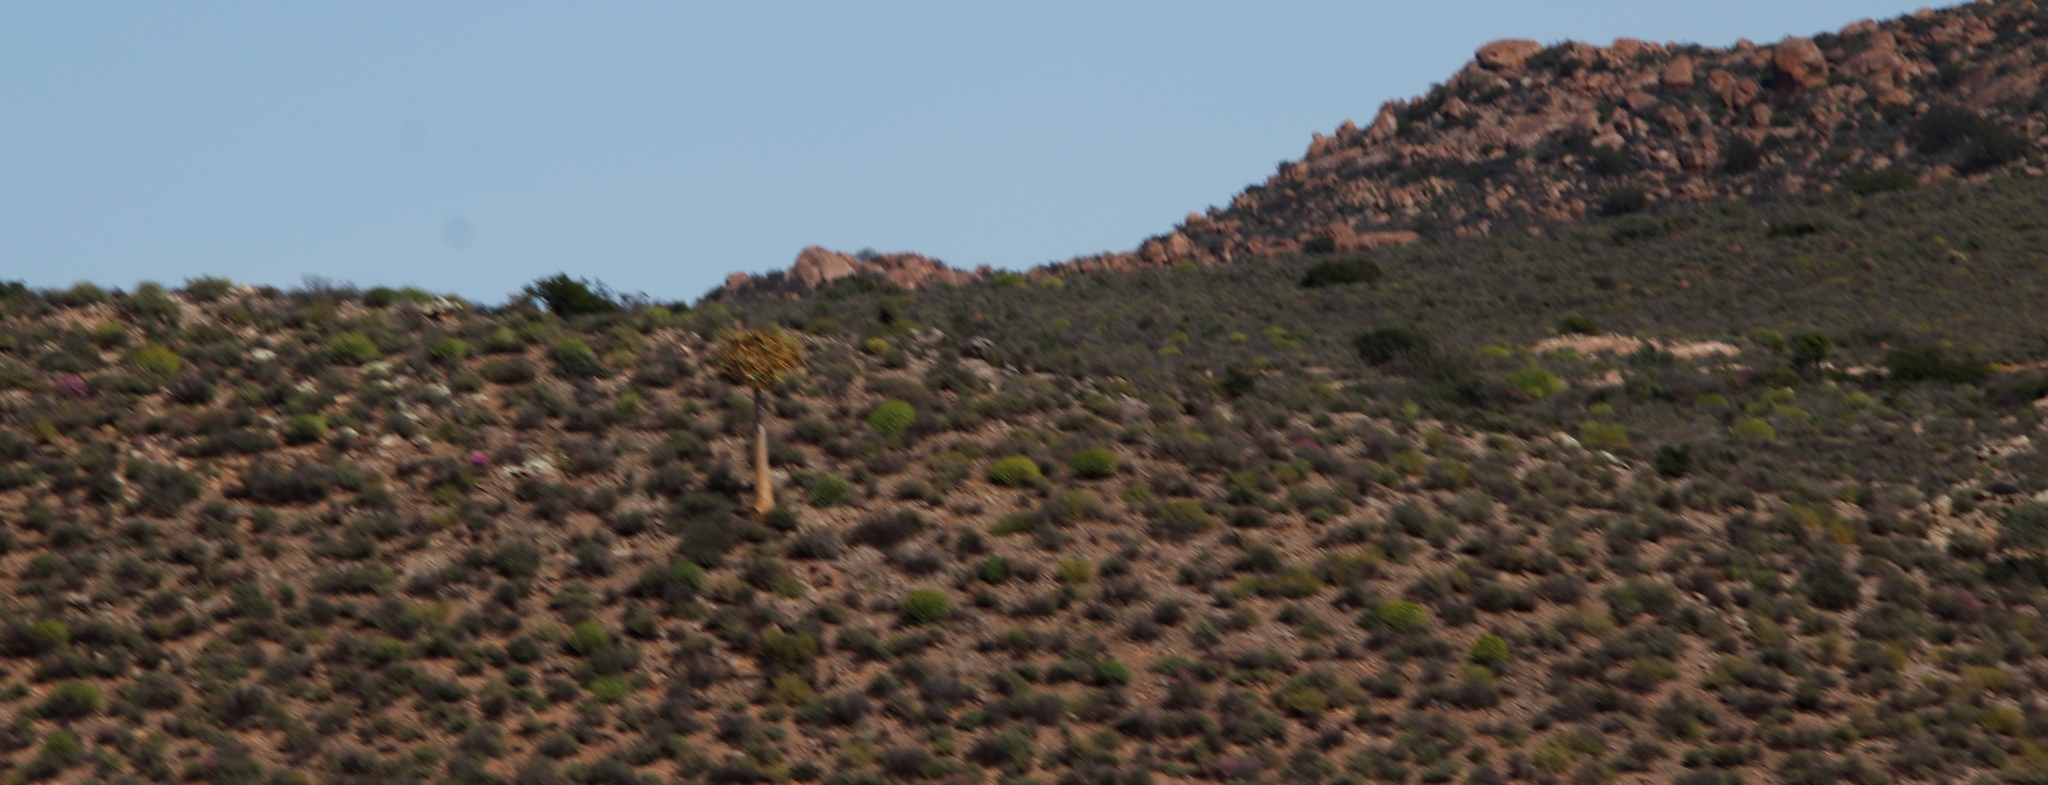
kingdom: Plantae
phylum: Tracheophyta
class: Liliopsida
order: Asparagales
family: Asphodelaceae
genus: Aloidendron
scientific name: Aloidendron dichotomum
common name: Quiver tree
